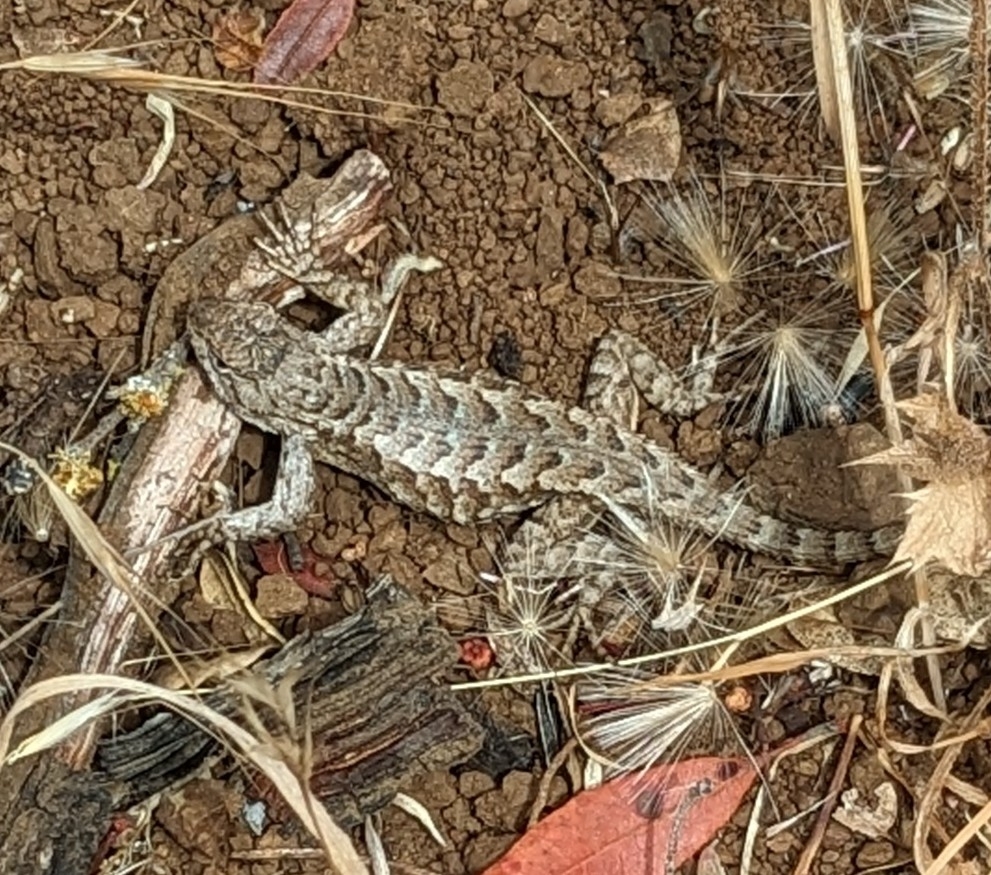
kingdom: Animalia
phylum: Chordata
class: Squamata
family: Phrynosomatidae
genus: Sceloporus
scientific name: Sceloporus occidentalis
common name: Western fence lizard
